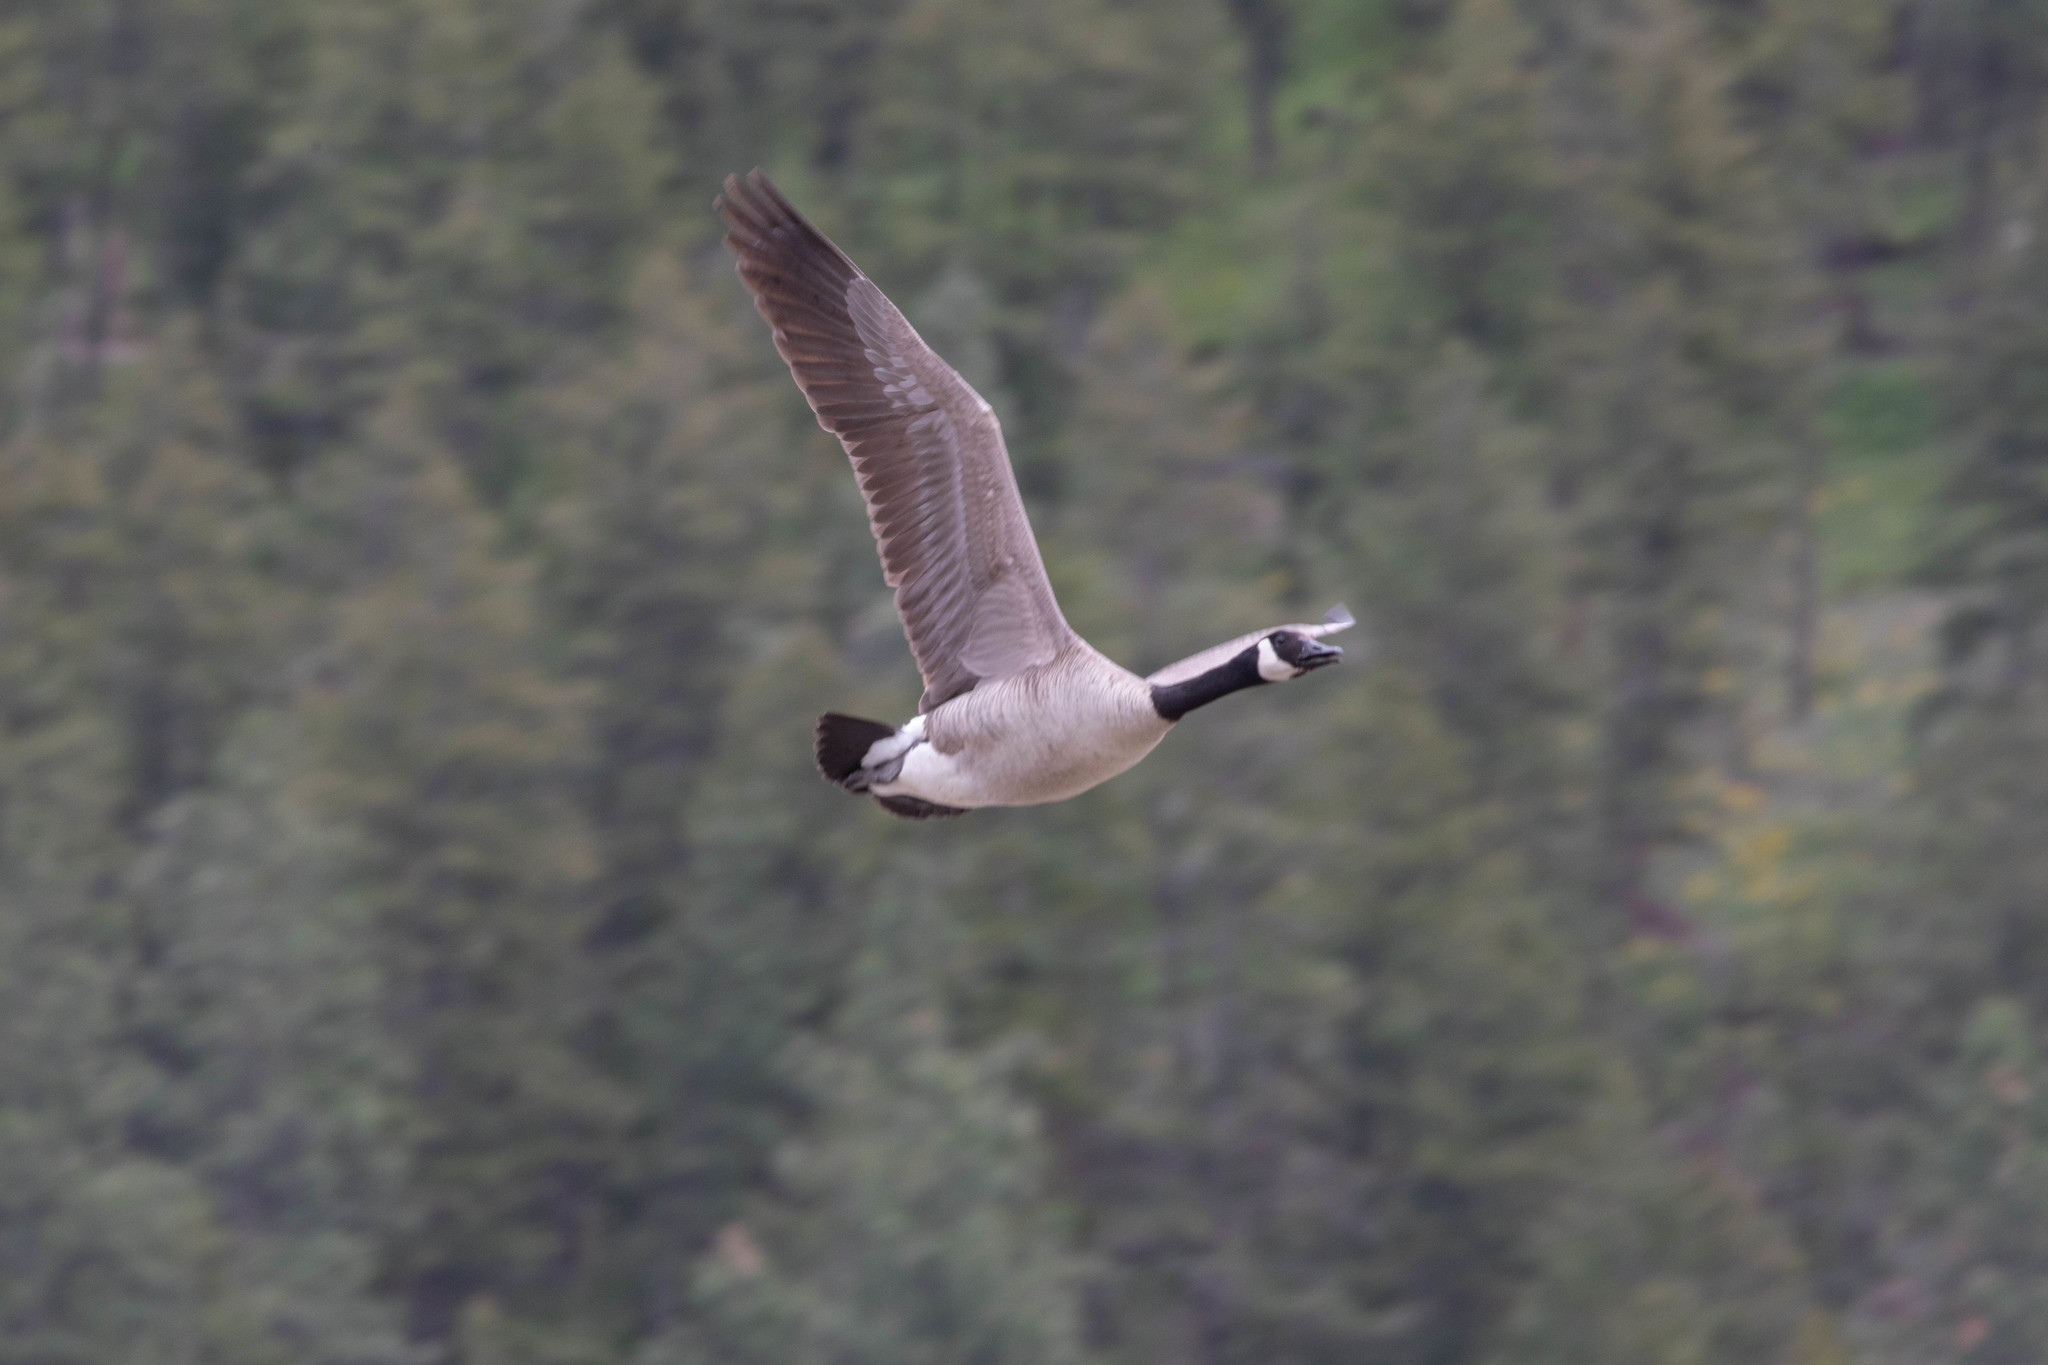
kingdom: Animalia
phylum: Chordata
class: Aves
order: Anseriformes
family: Anatidae
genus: Branta
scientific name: Branta canadensis
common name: Canada goose
